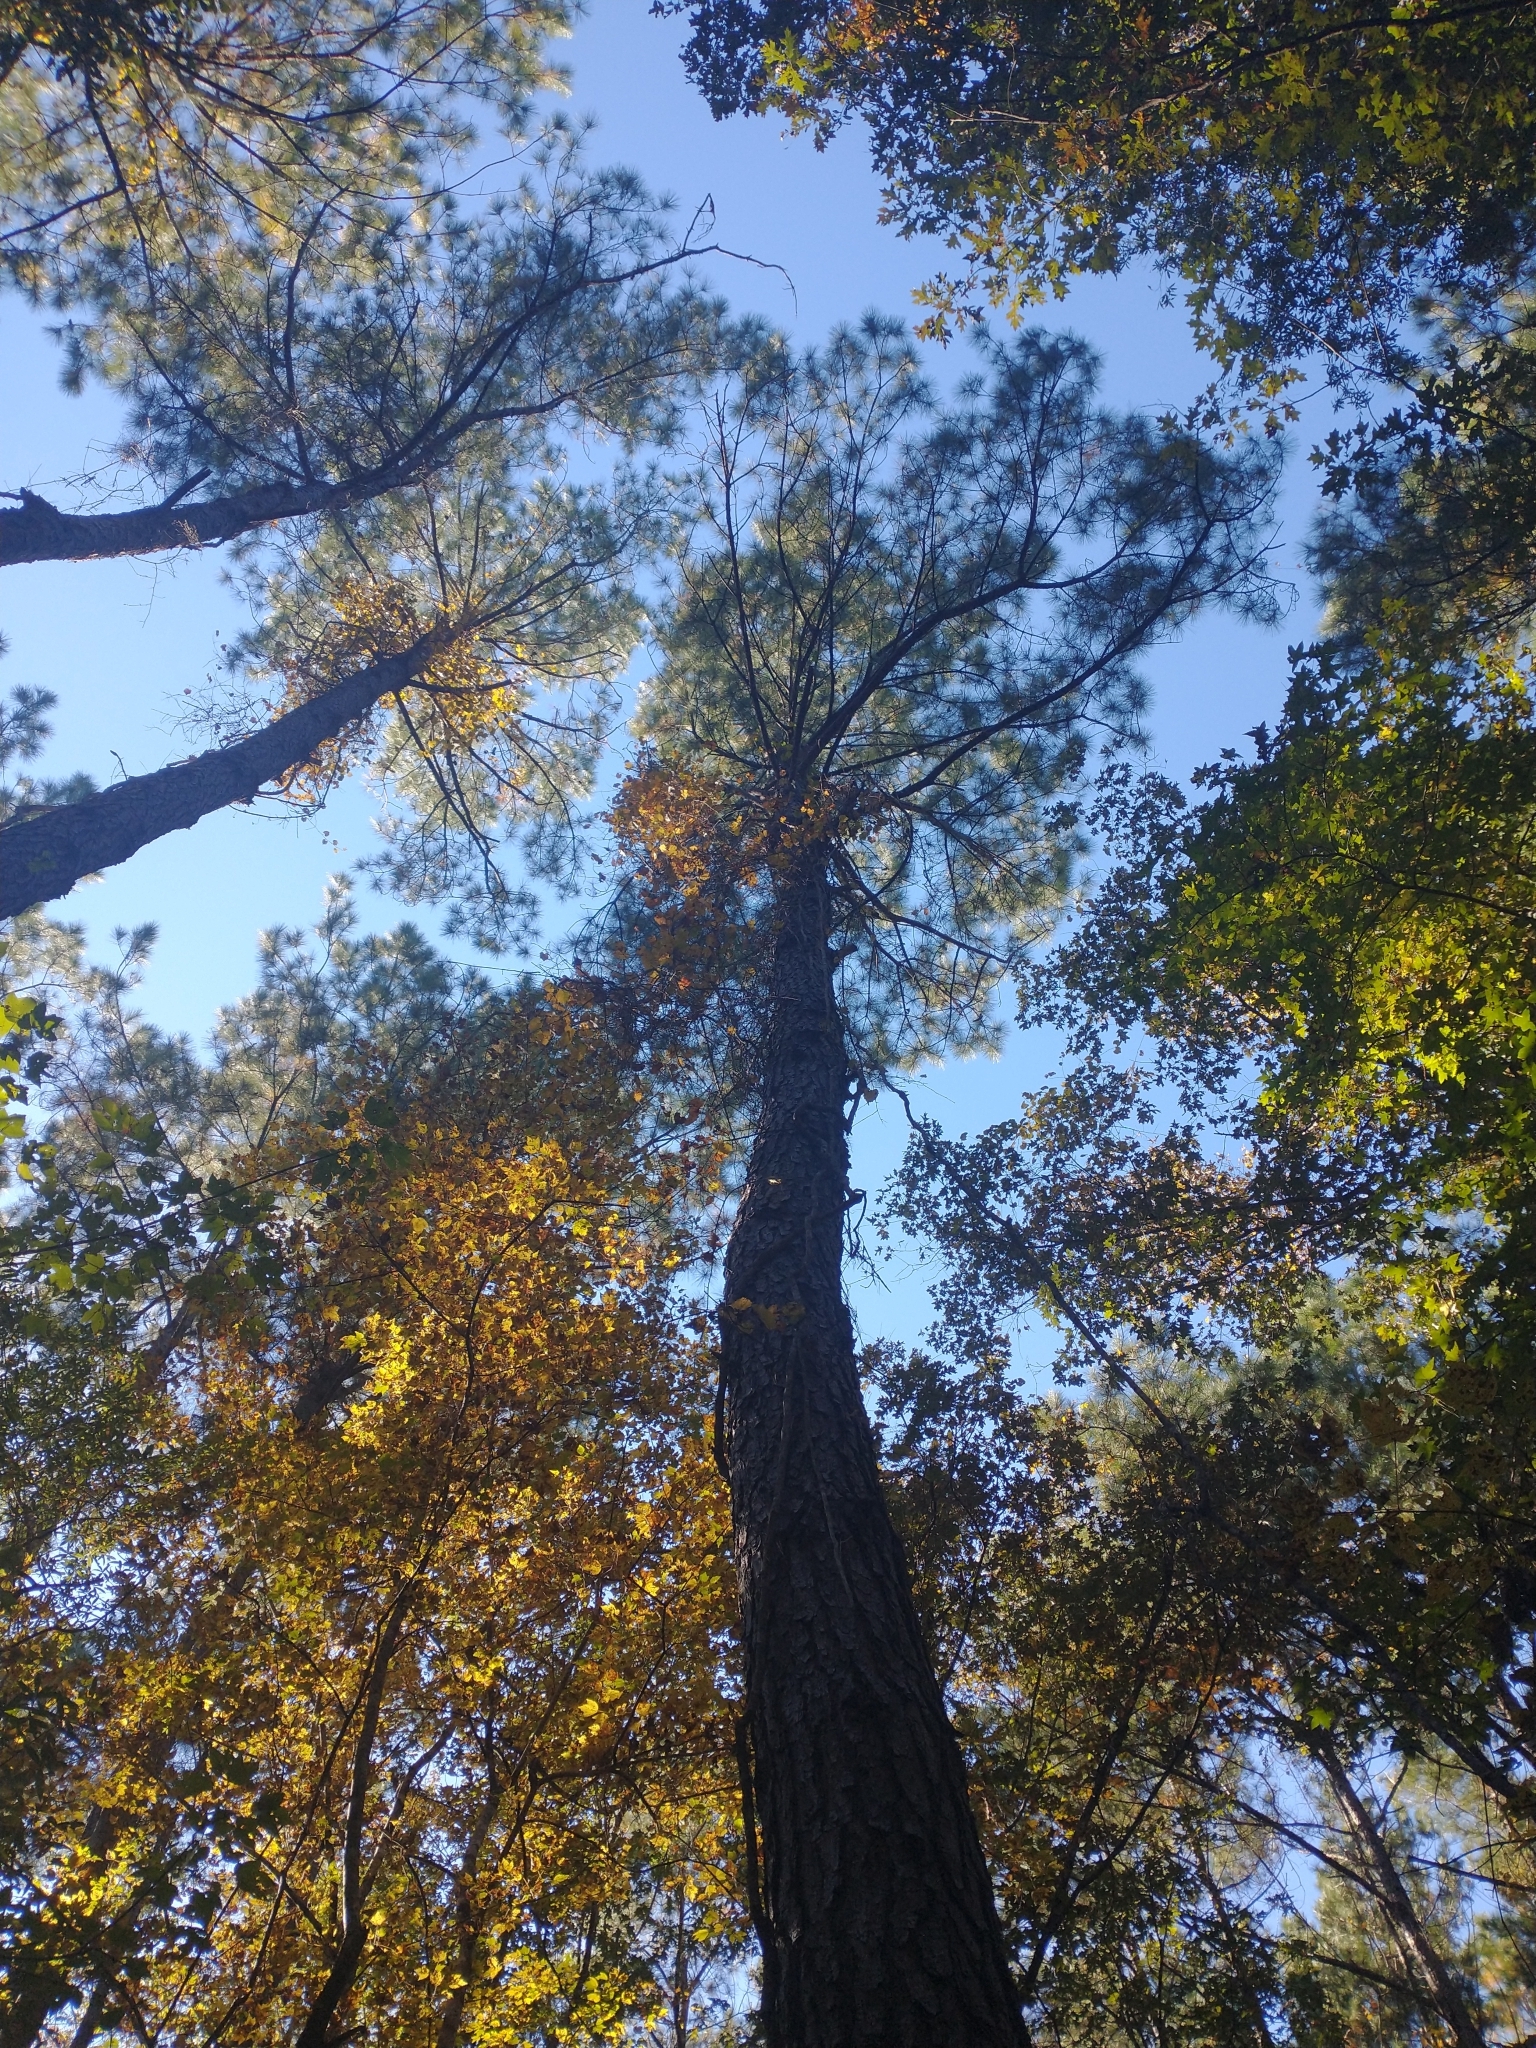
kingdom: Plantae
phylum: Tracheophyta
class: Pinopsida
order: Pinales
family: Pinaceae
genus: Pinus
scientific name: Pinus taeda
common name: Loblolly pine
